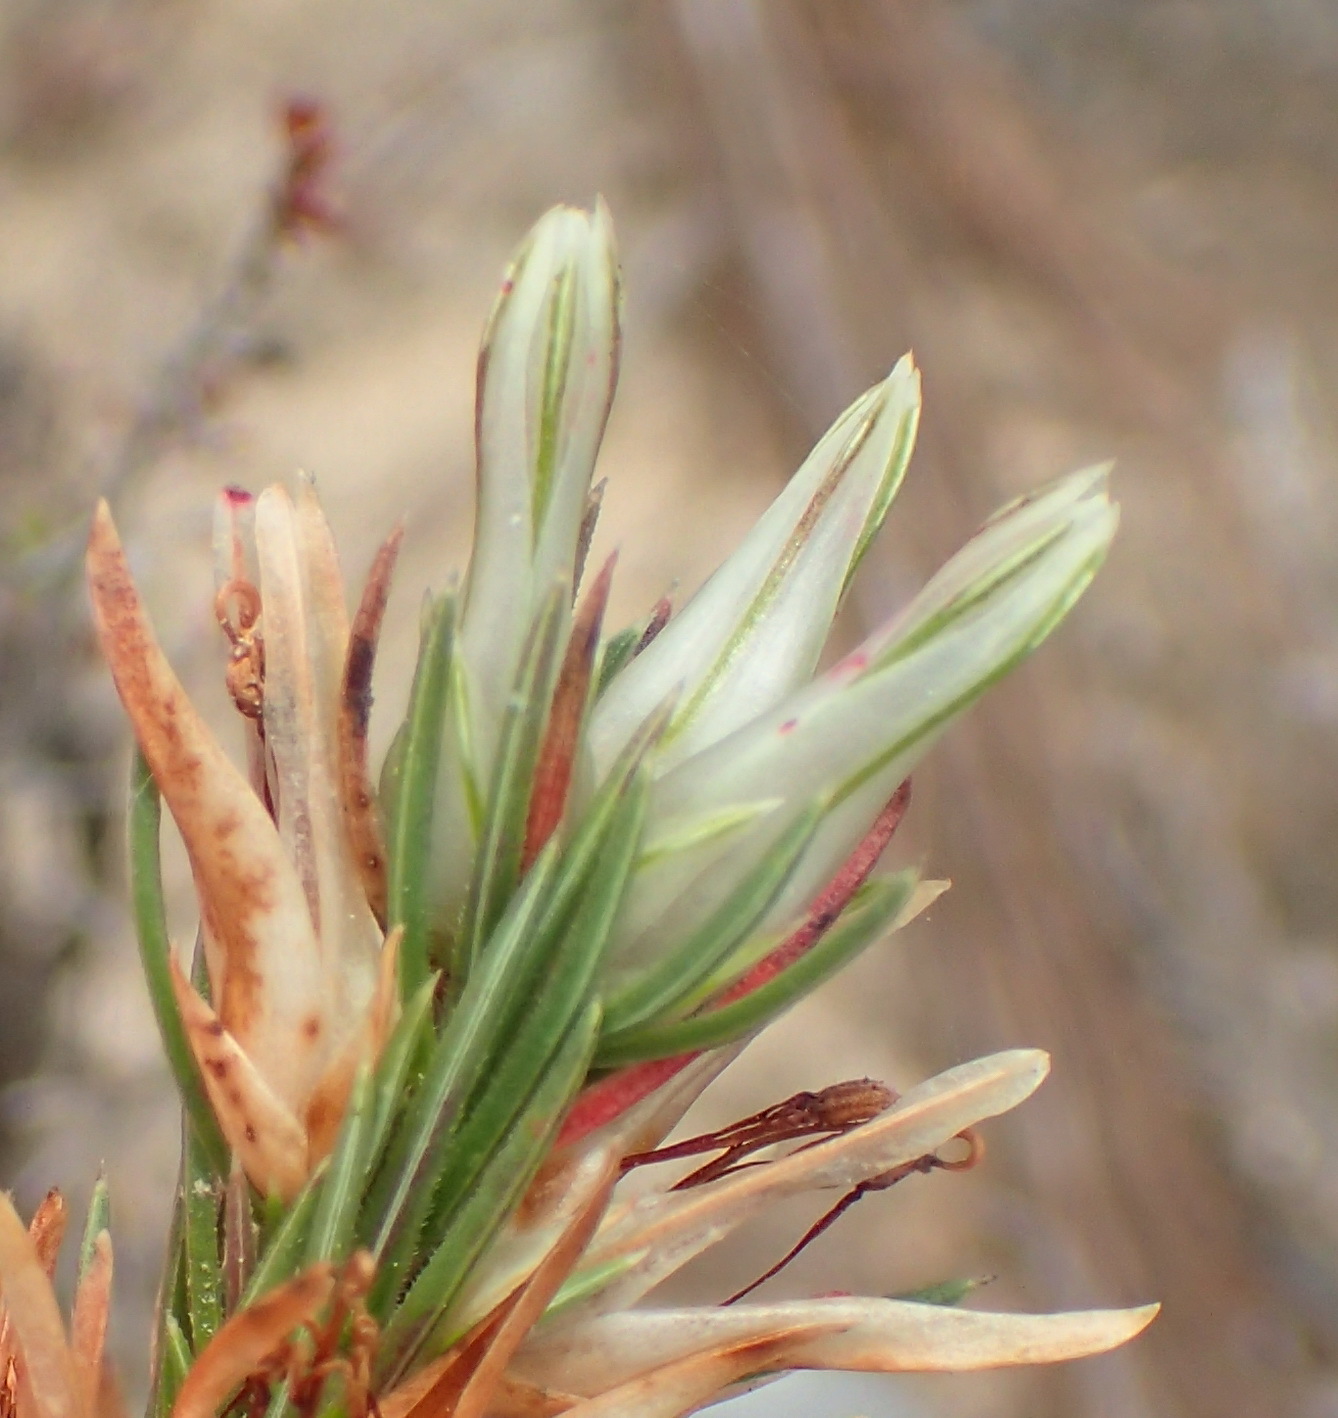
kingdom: Plantae
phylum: Tracheophyta
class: Magnoliopsida
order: Ericales
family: Ericaceae
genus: Erica
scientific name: Erica nabea
